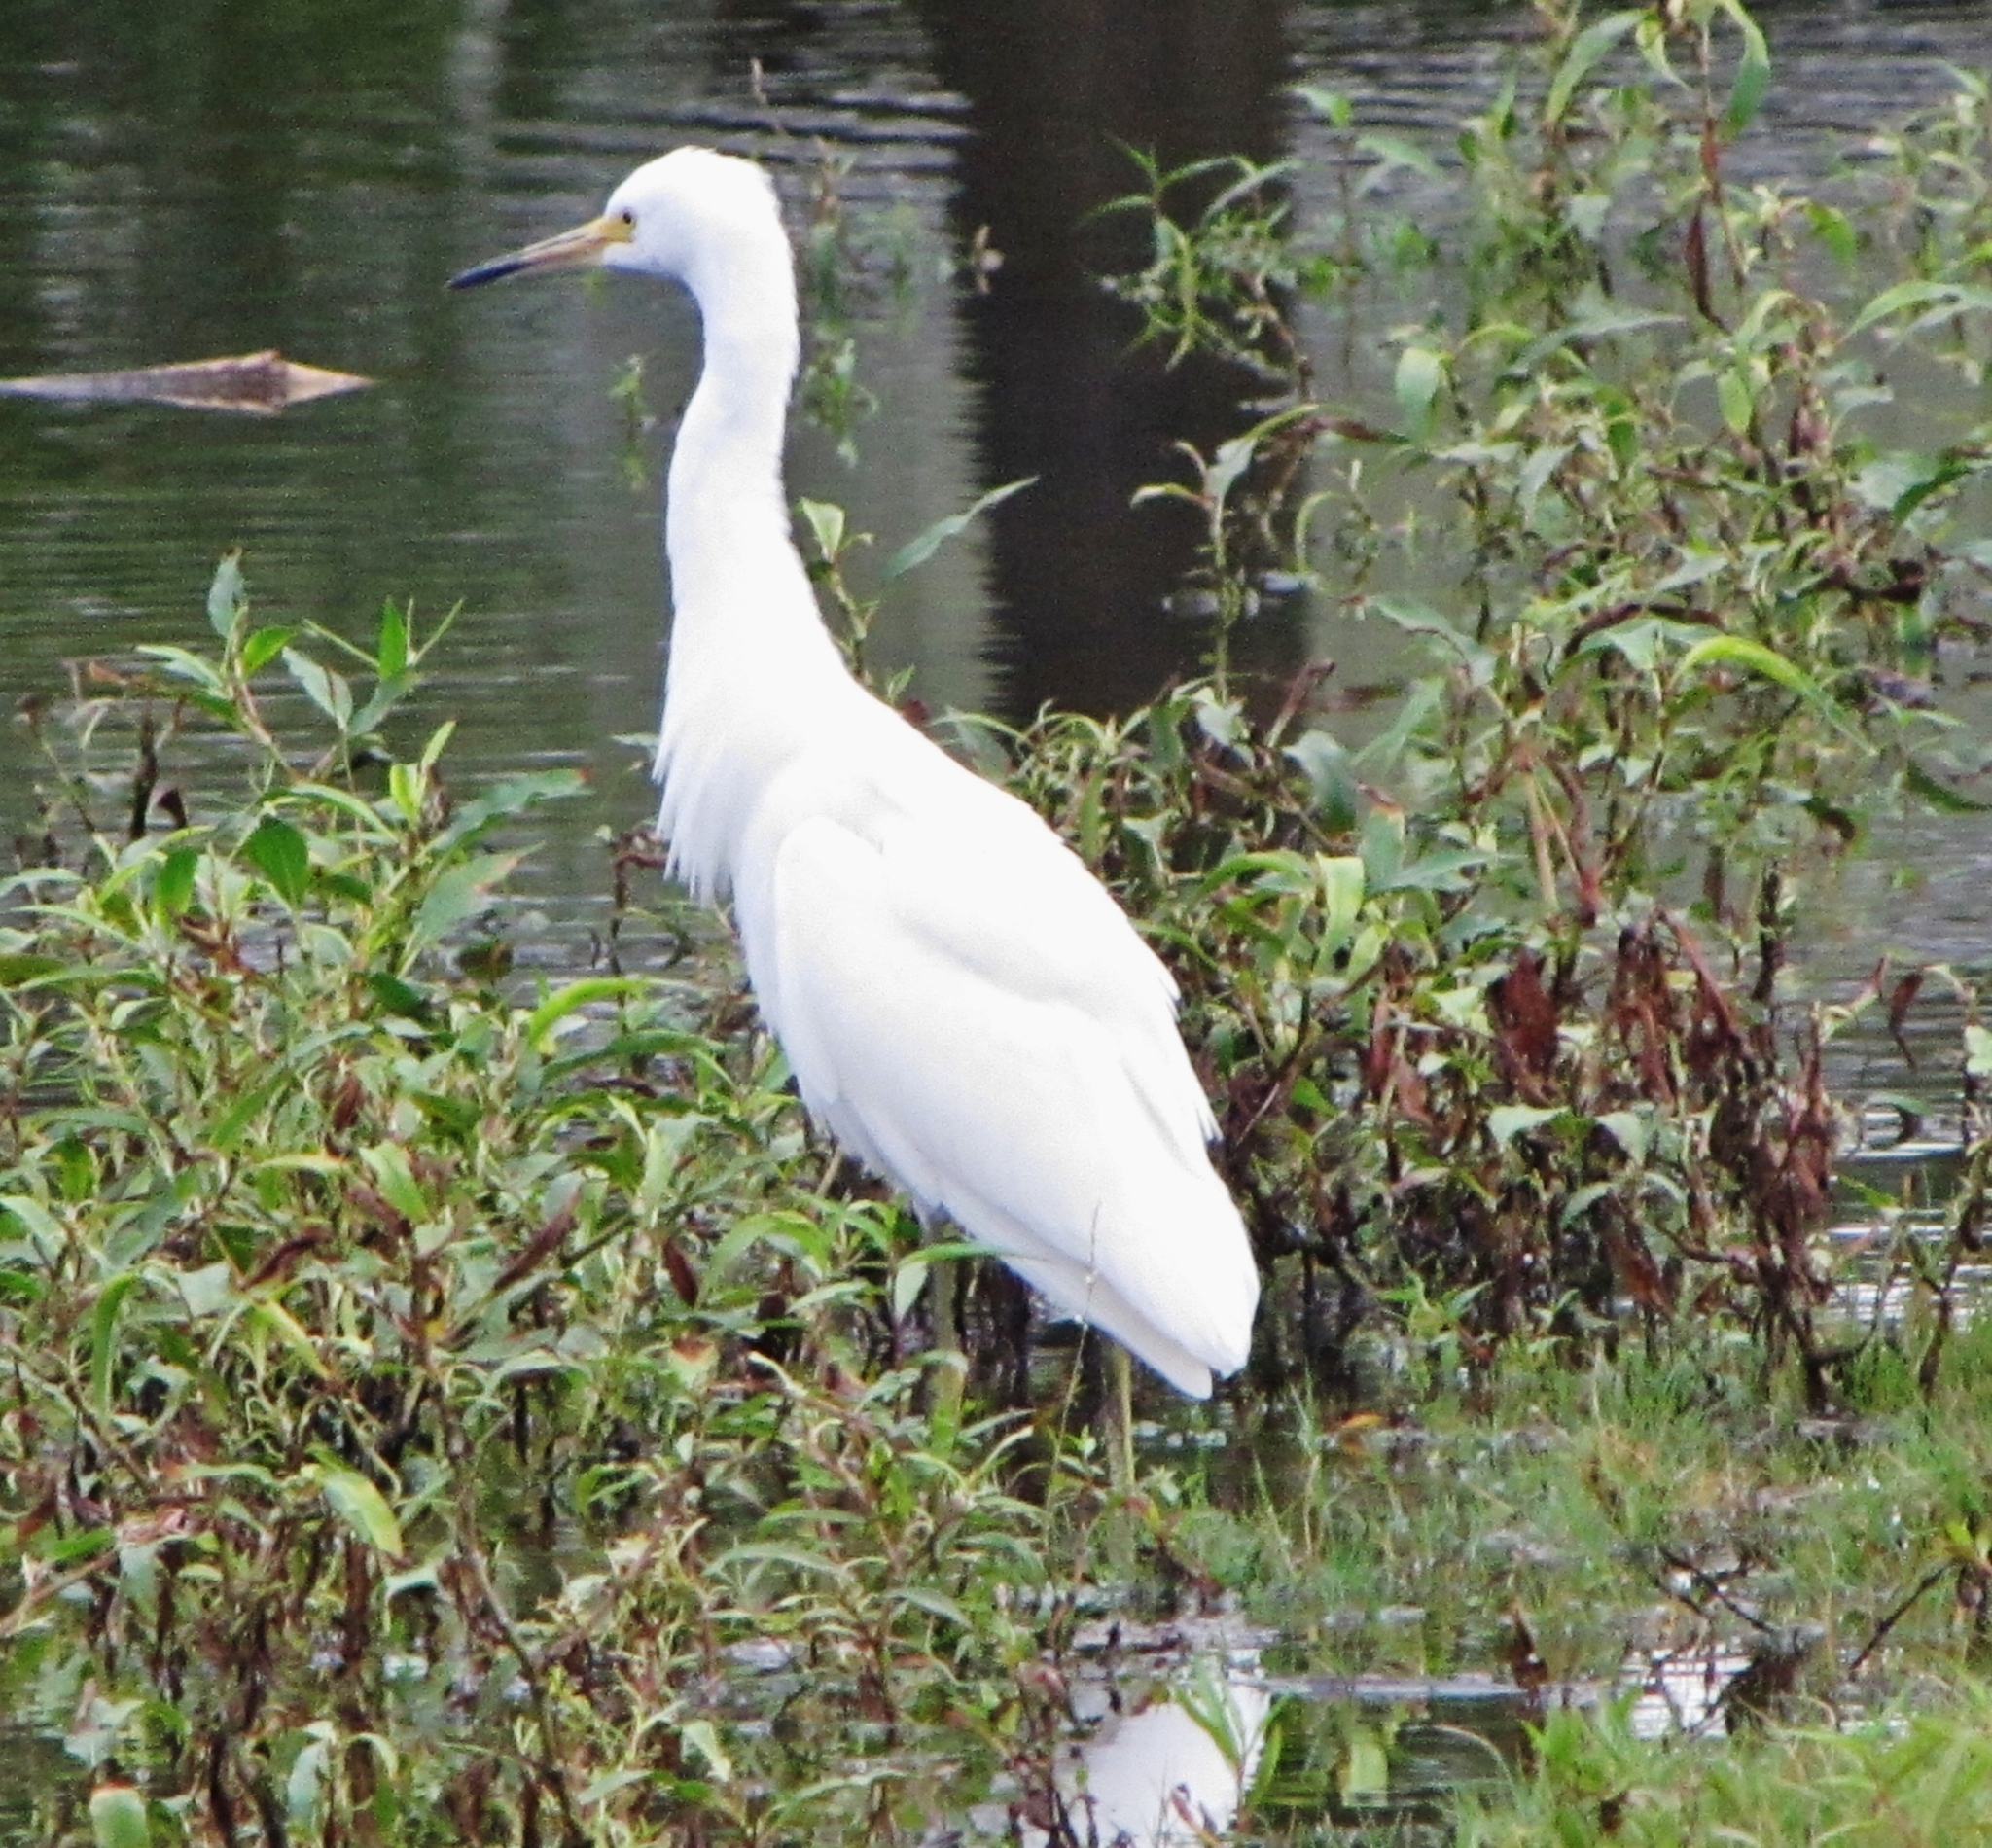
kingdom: Animalia
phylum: Chordata
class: Aves
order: Pelecaniformes
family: Ardeidae
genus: Egretta
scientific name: Egretta thula
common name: Snowy egret
